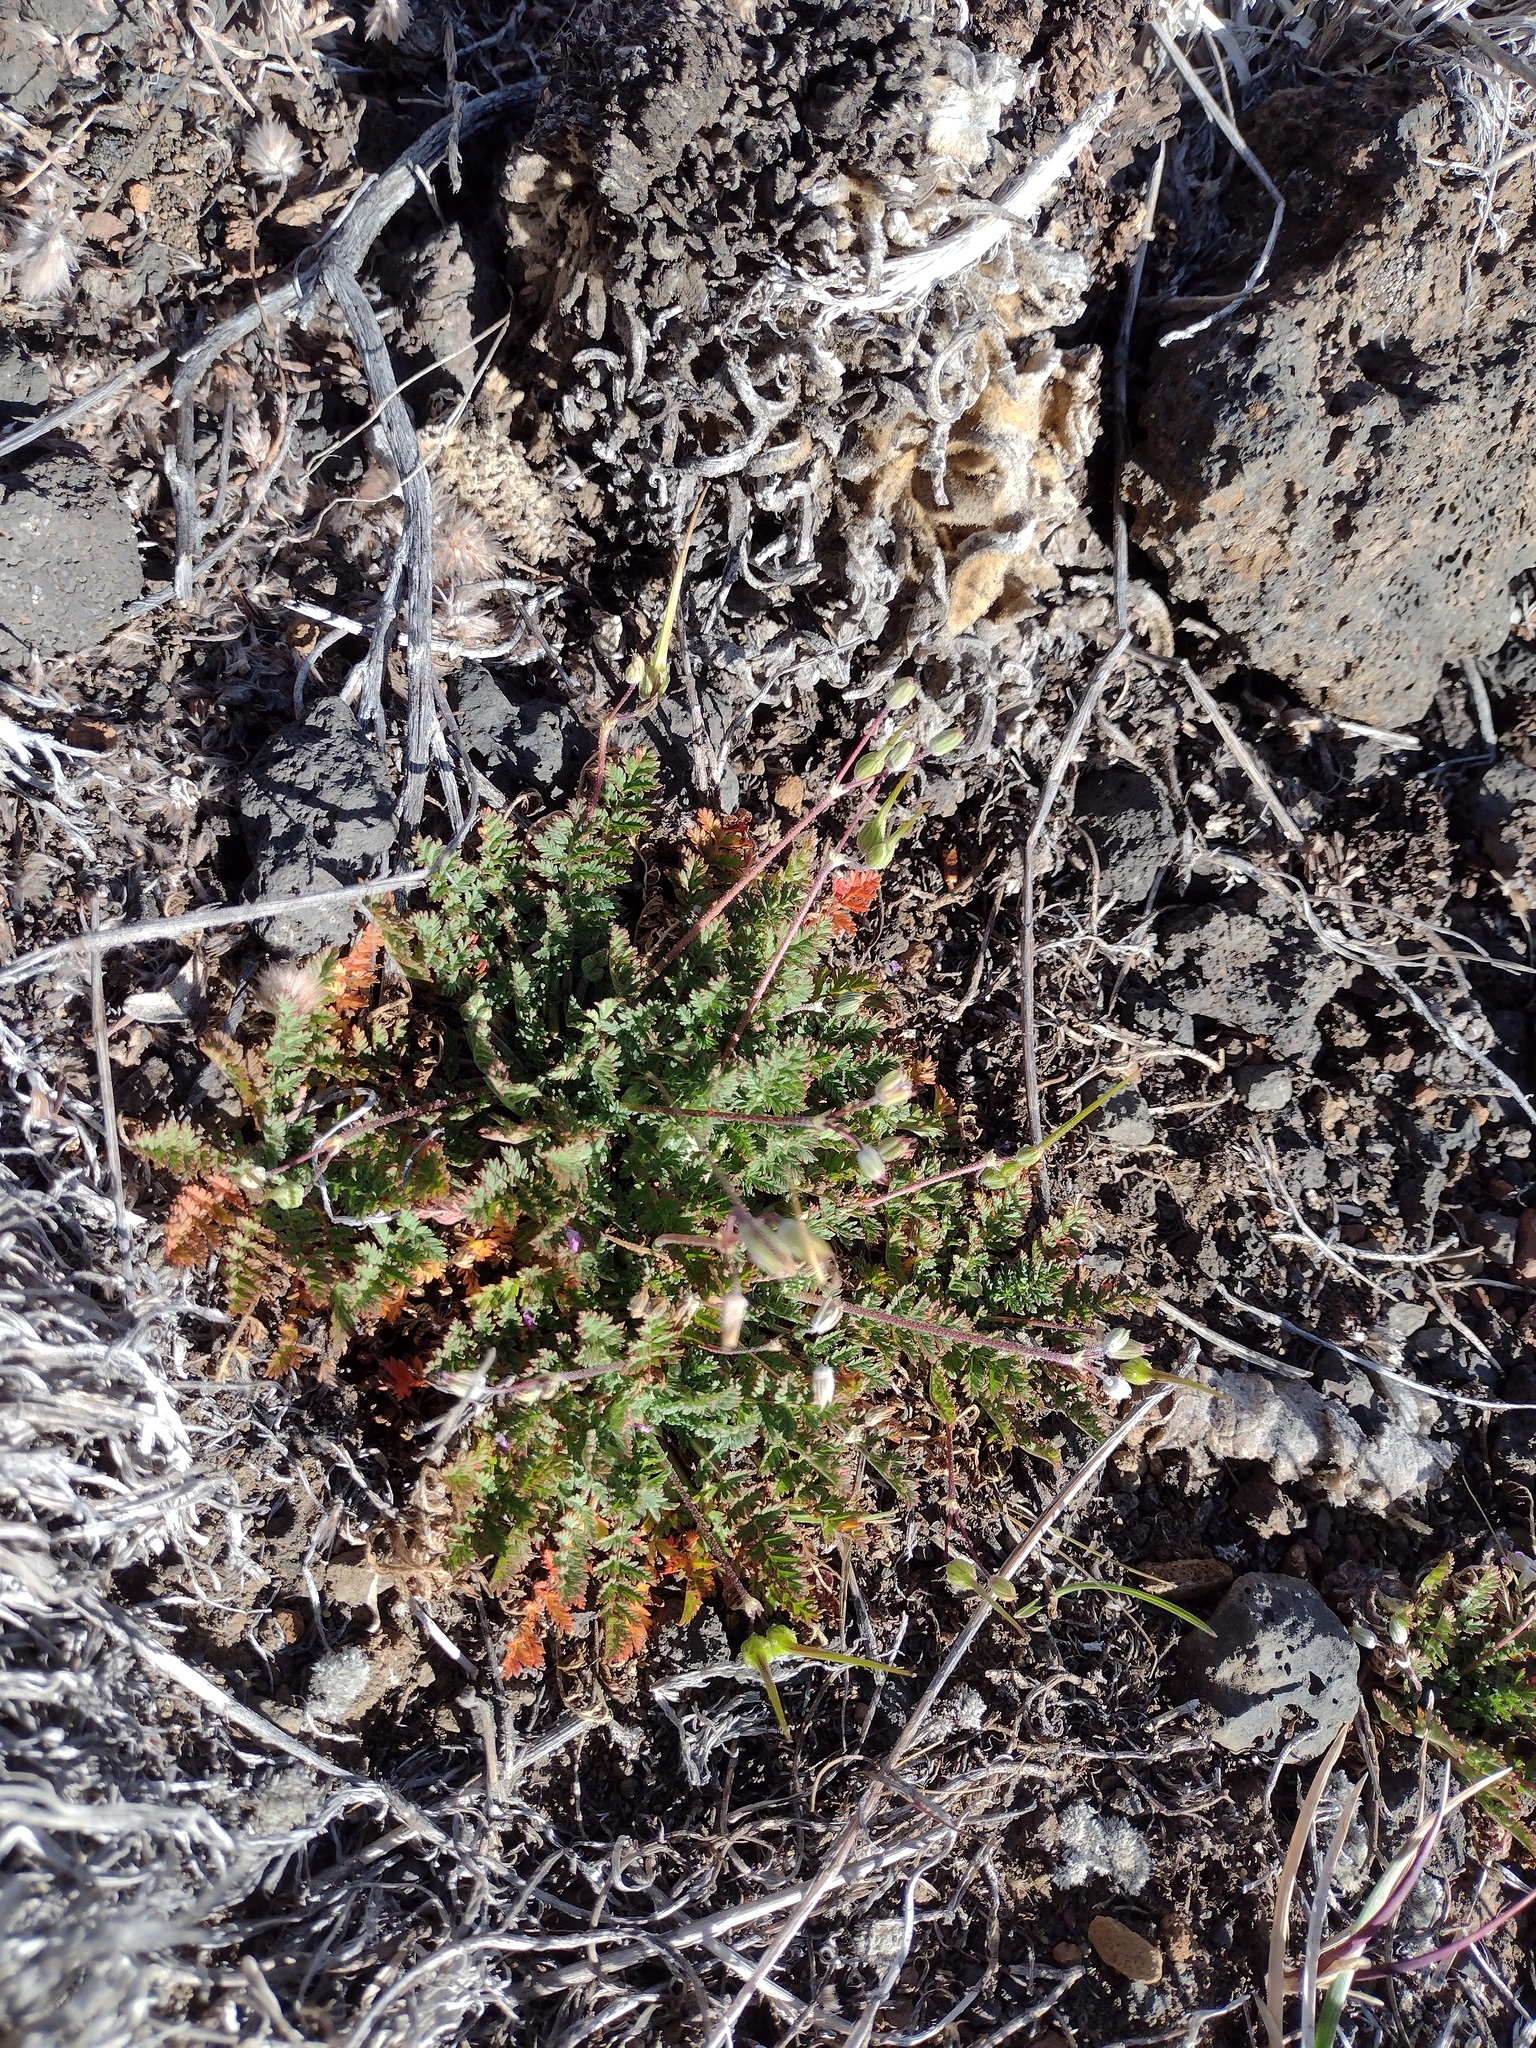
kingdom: Plantae
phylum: Tracheophyta
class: Magnoliopsida
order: Geraniales
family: Geraniaceae
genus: Erodium
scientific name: Erodium cicutarium
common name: Common stork's-bill
